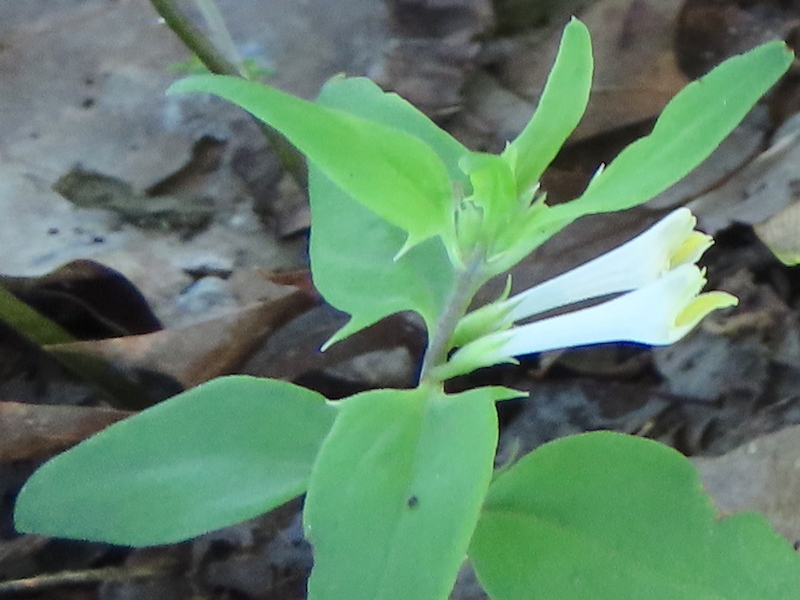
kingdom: Plantae
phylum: Tracheophyta
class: Magnoliopsida
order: Lamiales
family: Orobanchaceae
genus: Melampyrum
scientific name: Melampyrum lineare
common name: American cow-wheat
